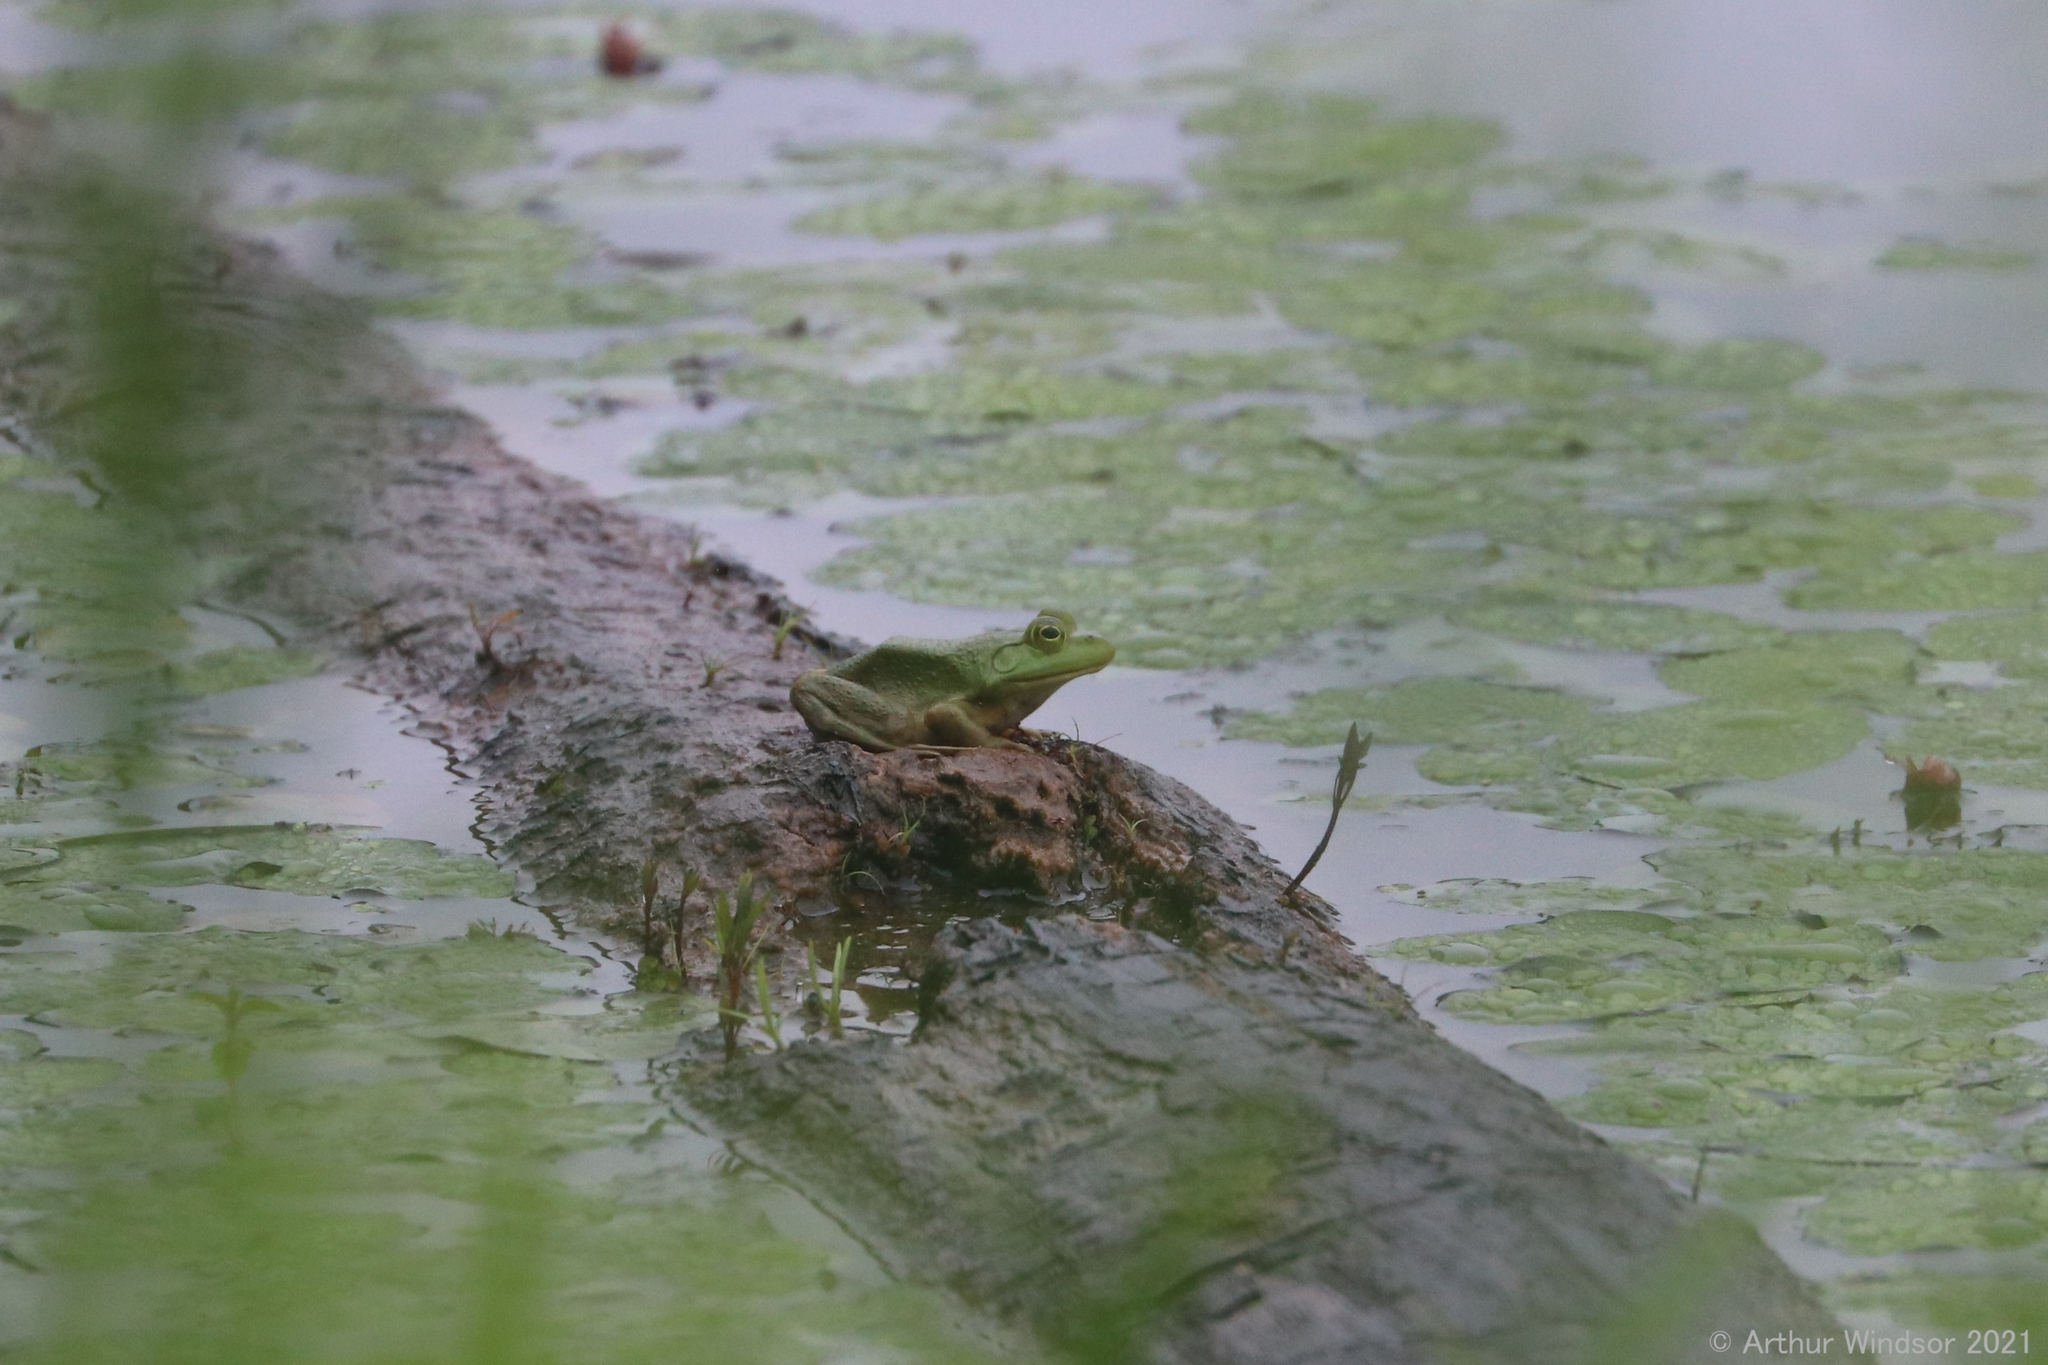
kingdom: Animalia
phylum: Chordata
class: Amphibia
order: Anura
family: Ranidae
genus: Lithobates
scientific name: Lithobates catesbeianus
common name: American bullfrog
